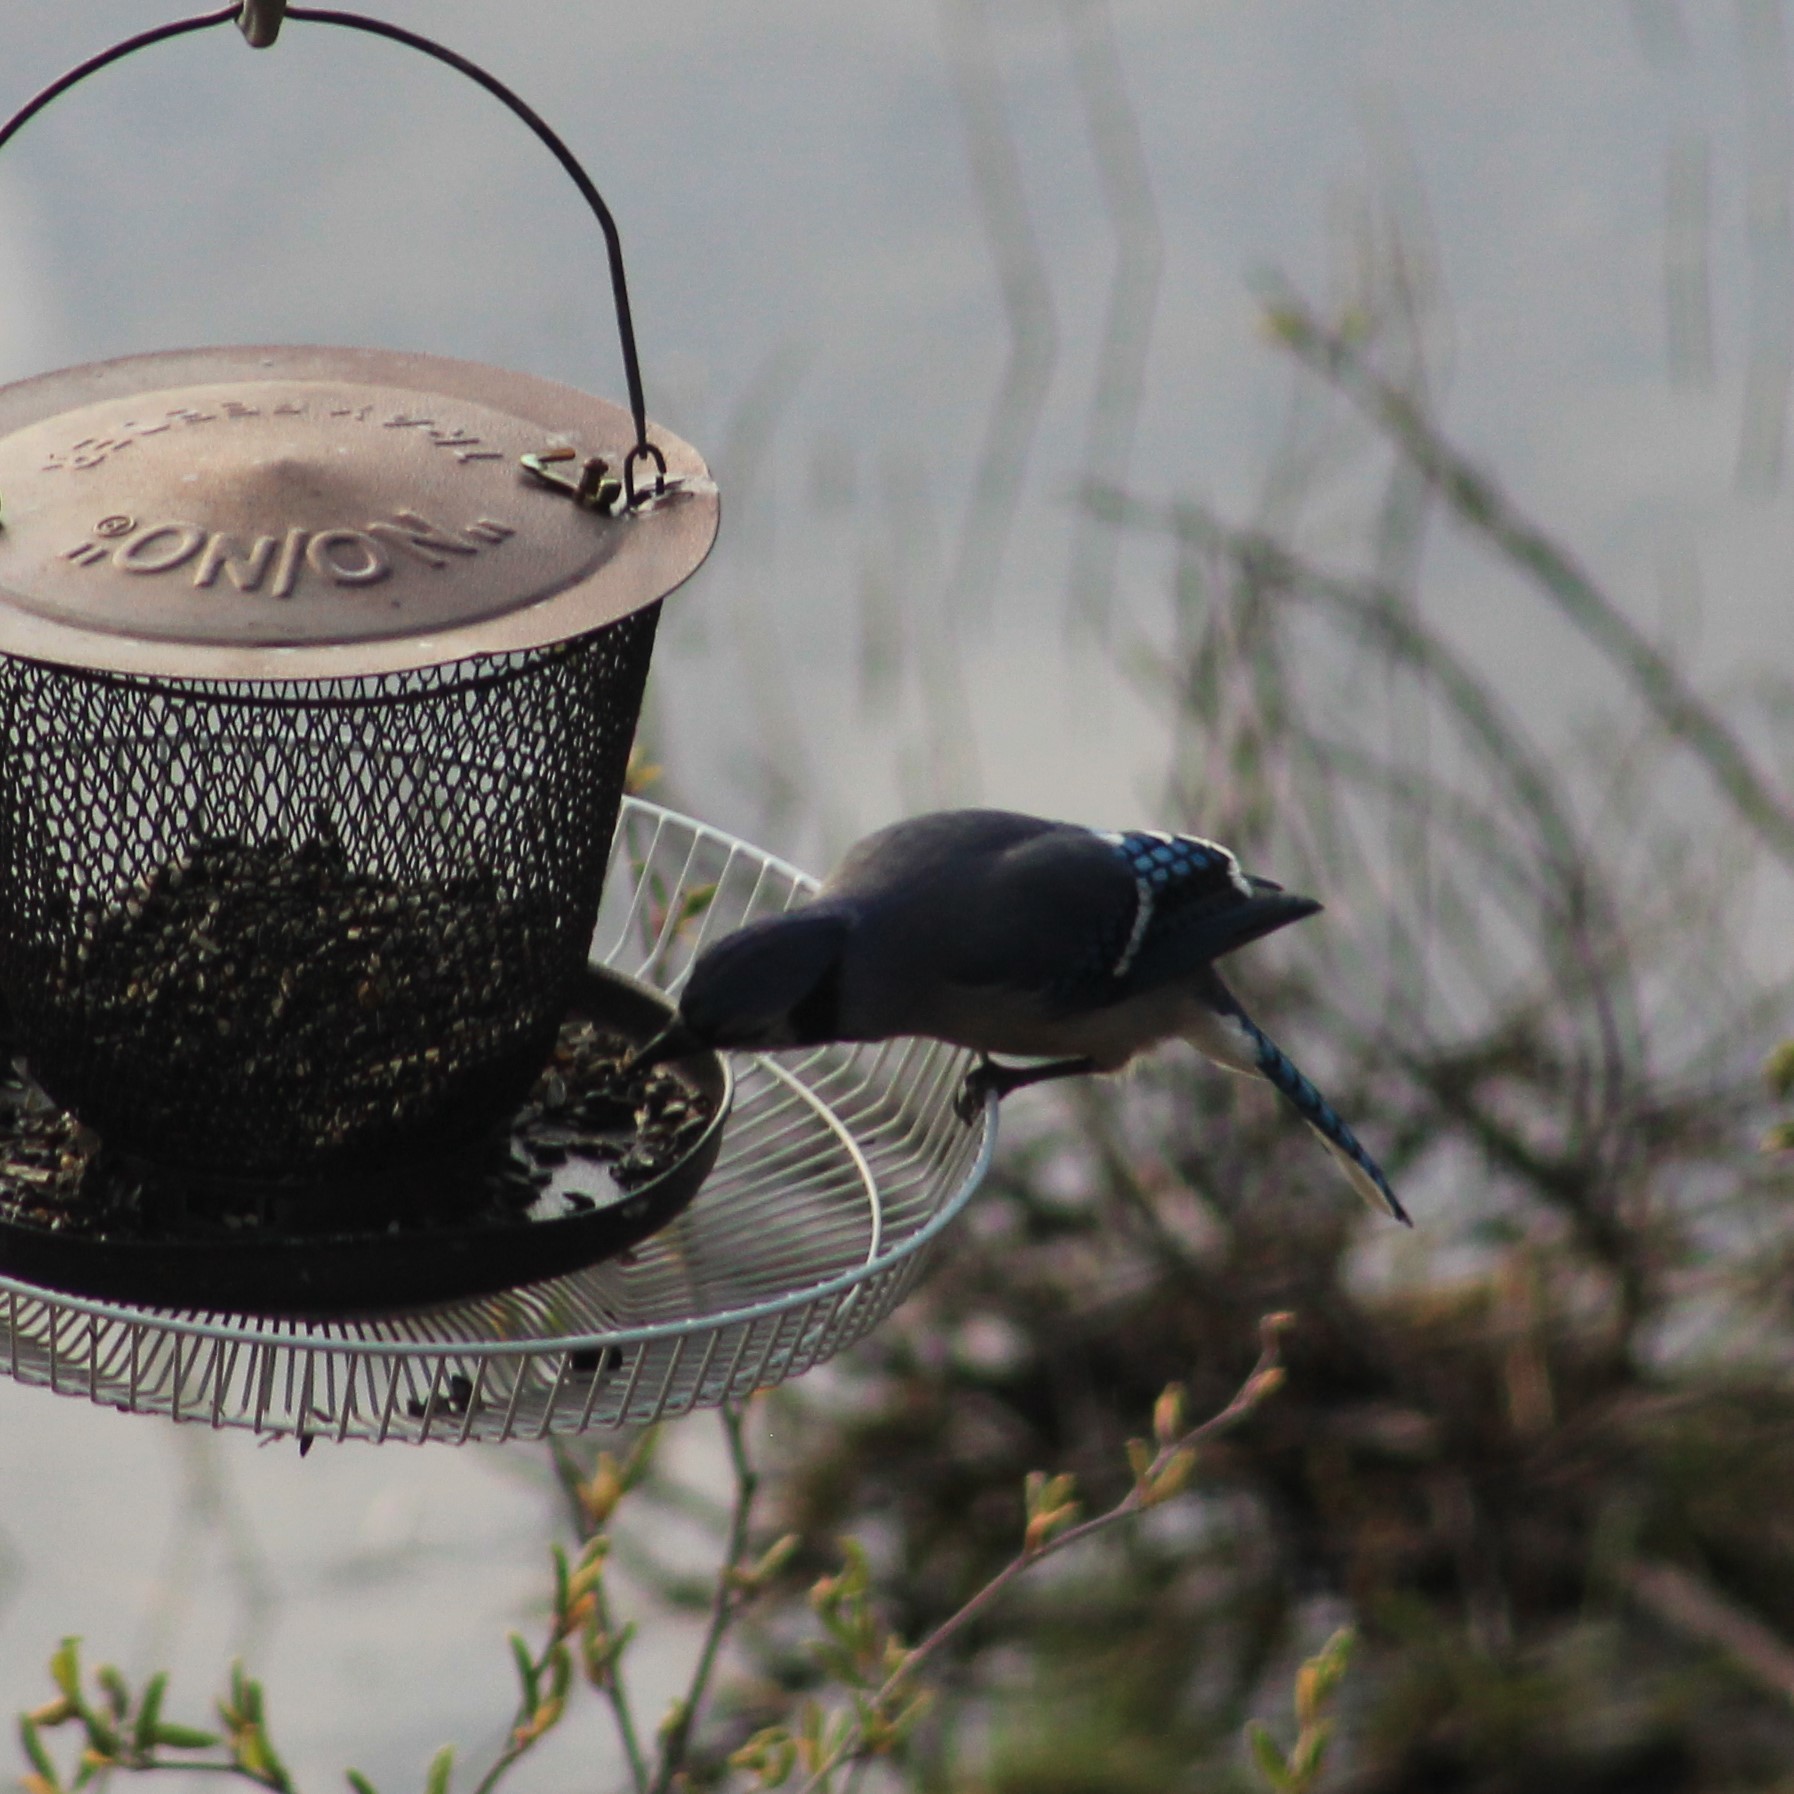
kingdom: Animalia
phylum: Chordata
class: Aves
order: Passeriformes
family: Corvidae
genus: Cyanocitta
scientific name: Cyanocitta cristata
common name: Blue jay
